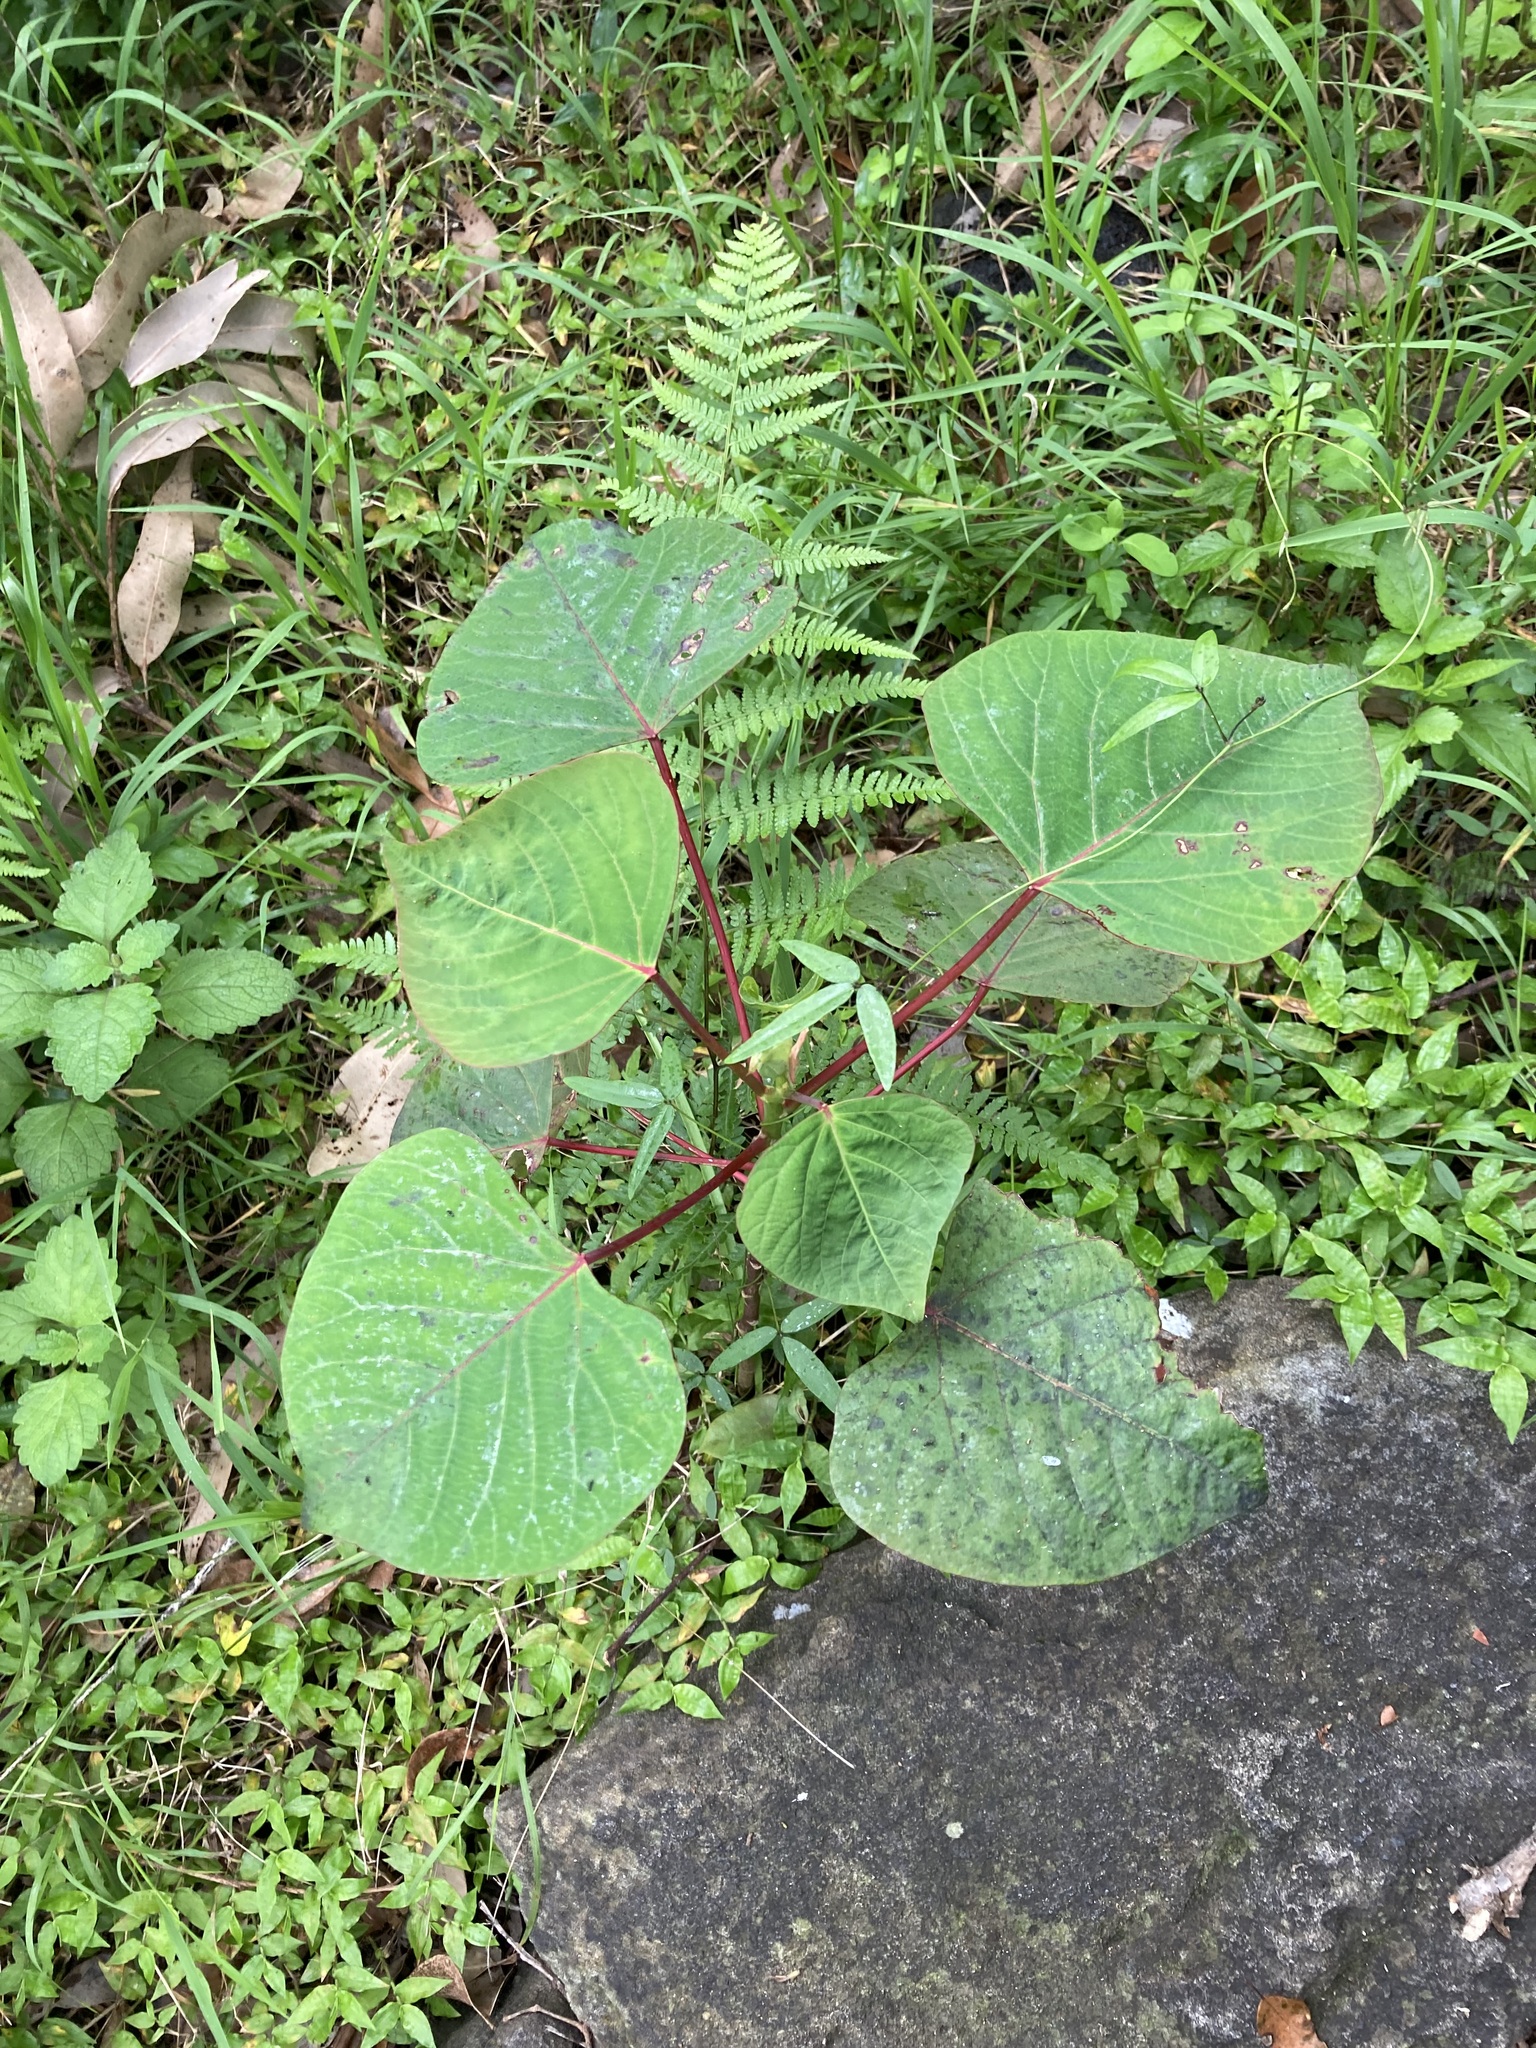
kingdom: Plantae
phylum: Tracheophyta
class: Magnoliopsida
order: Malpighiales
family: Euphorbiaceae
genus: Homalanthus
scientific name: Homalanthus populifolius
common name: Queensland poplar
